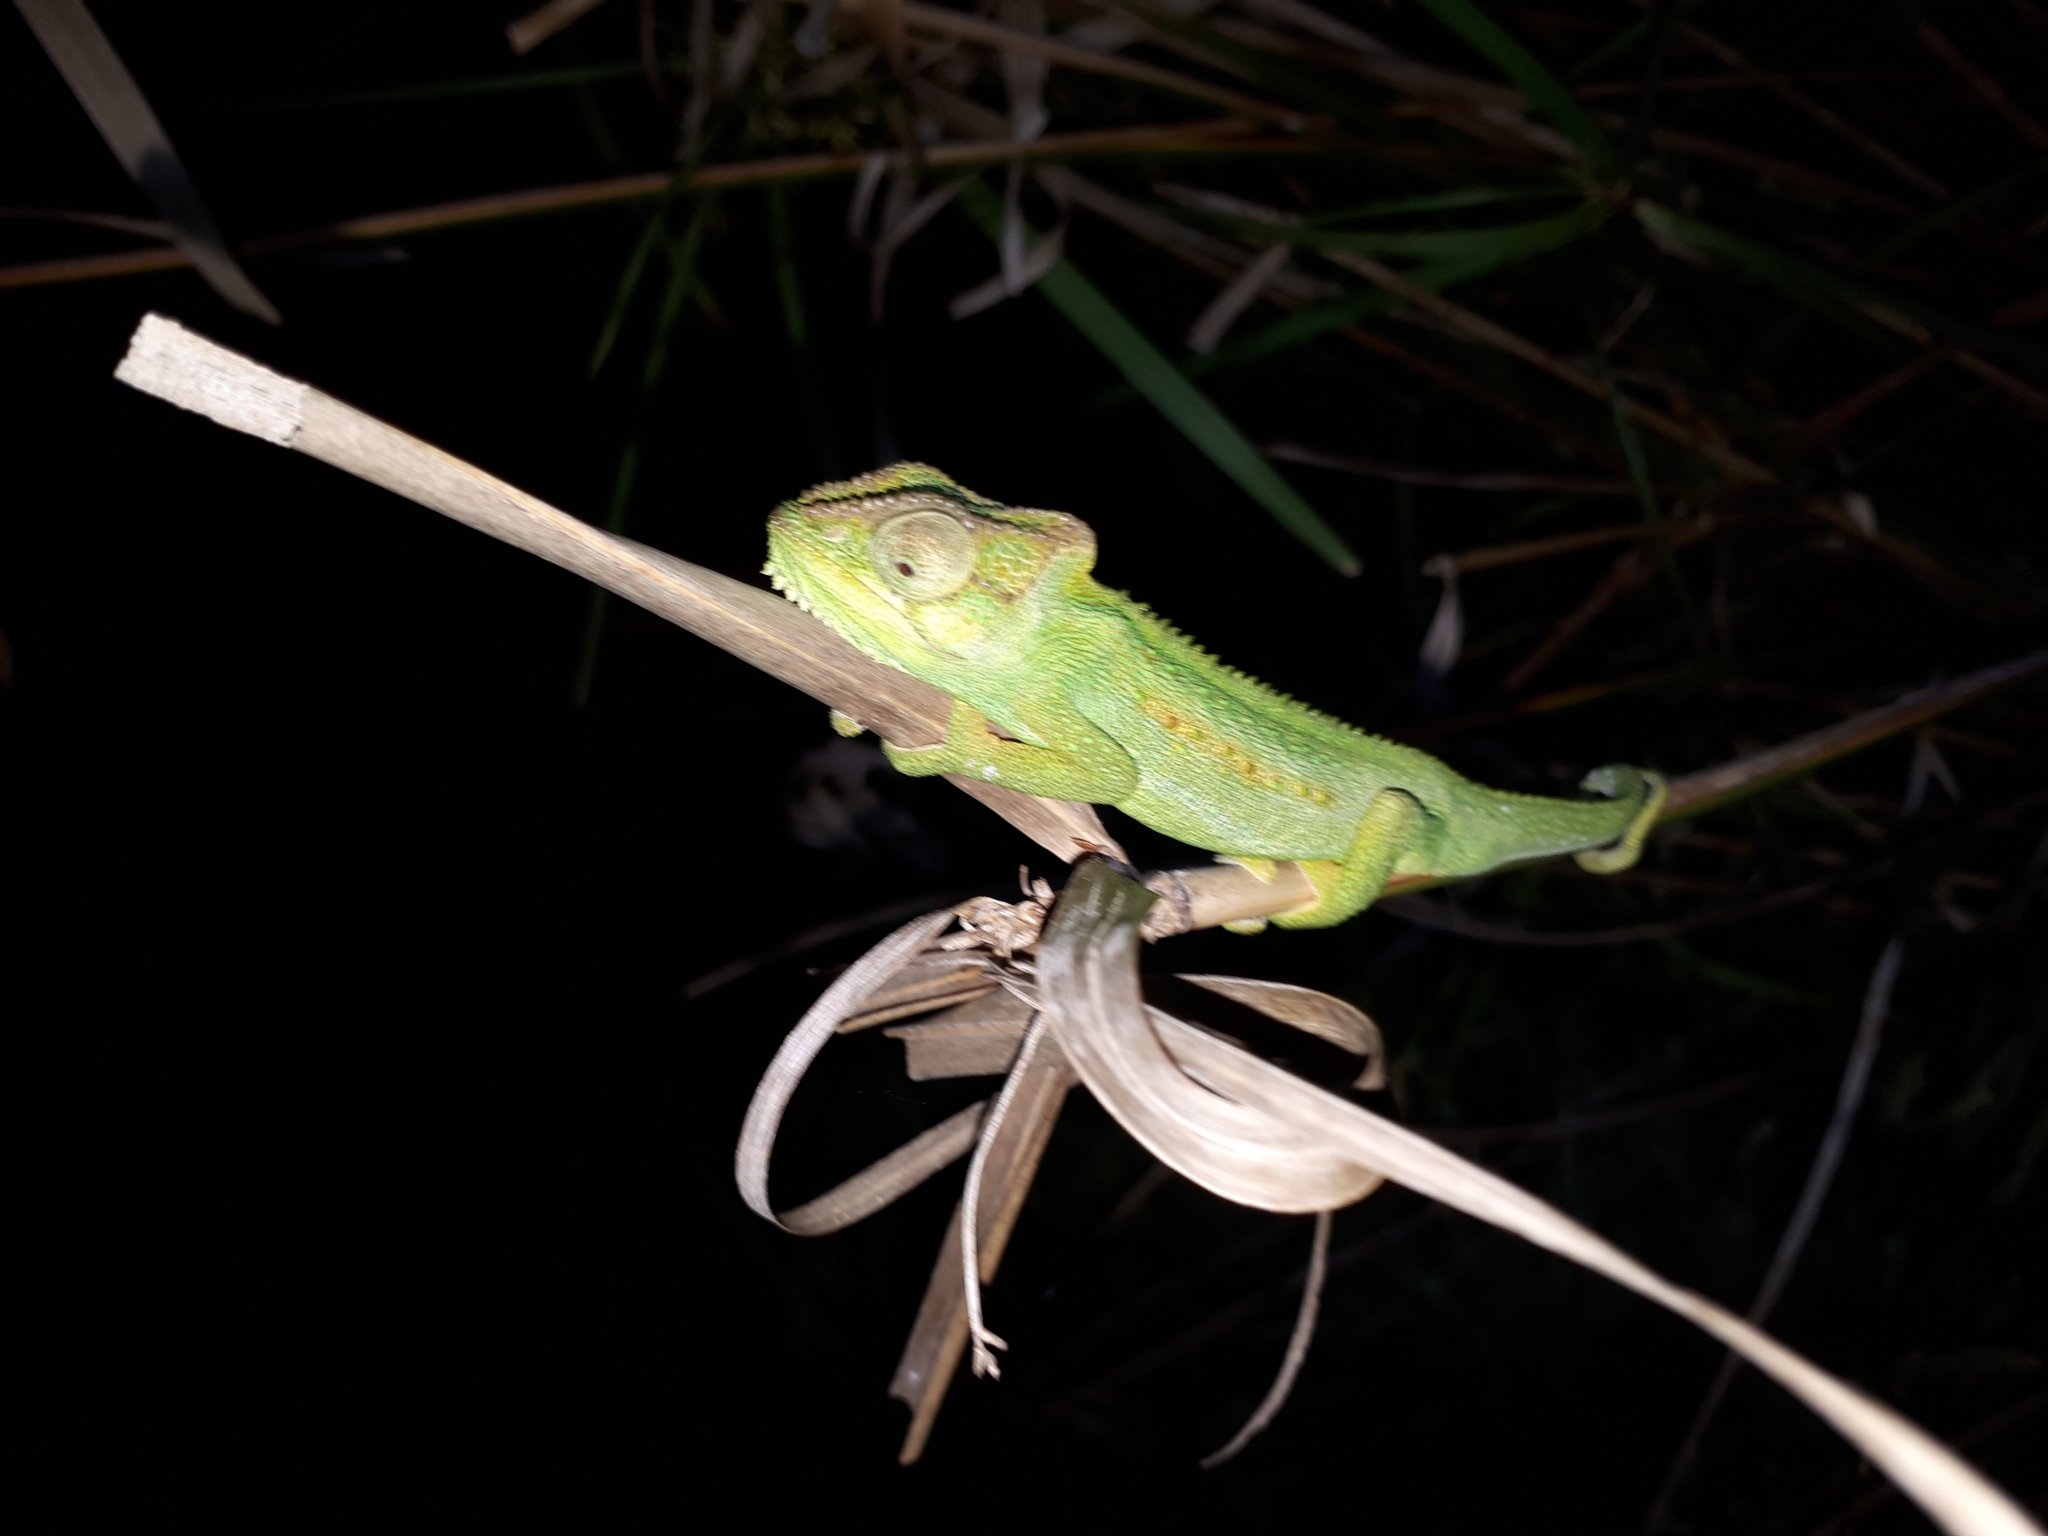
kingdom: Animalia
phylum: Chordata
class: Squamata
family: Chamaeleonidae
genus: Bradypodion
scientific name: Bradypodion pumilum
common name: Cape dwarf chameleon
